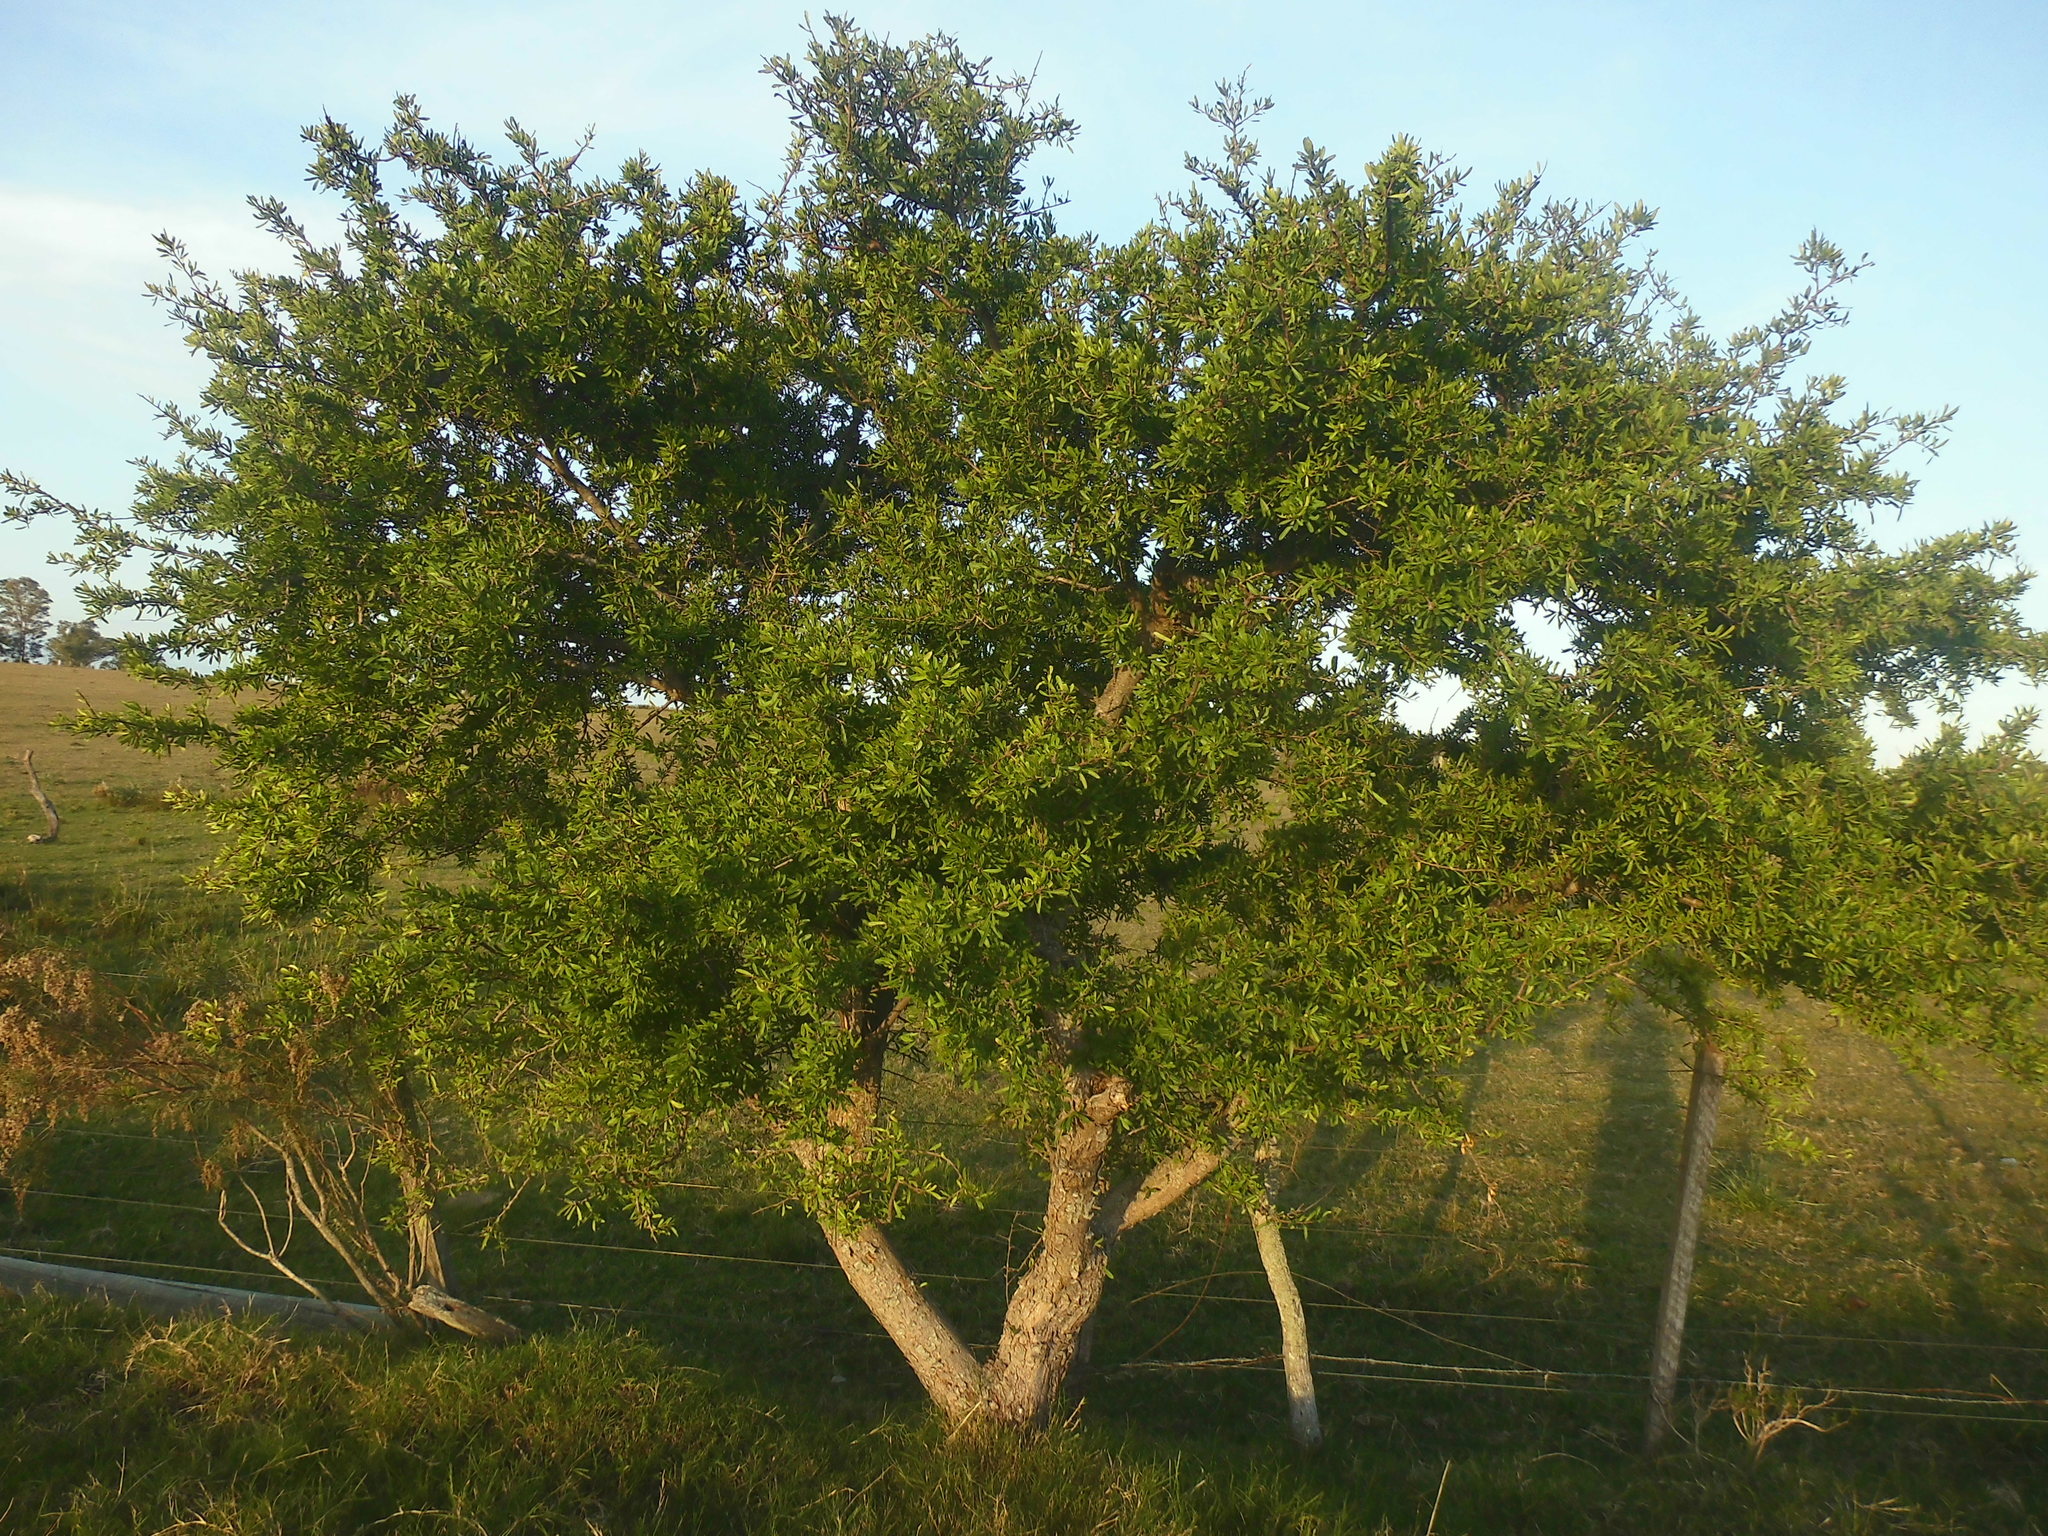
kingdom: Plantae
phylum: Tracheophyta
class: Magnoliopsida
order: Sapindales
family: Anacardiaceae
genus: Schinus
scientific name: Schinus longifolia
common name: Longleaf peppertree
